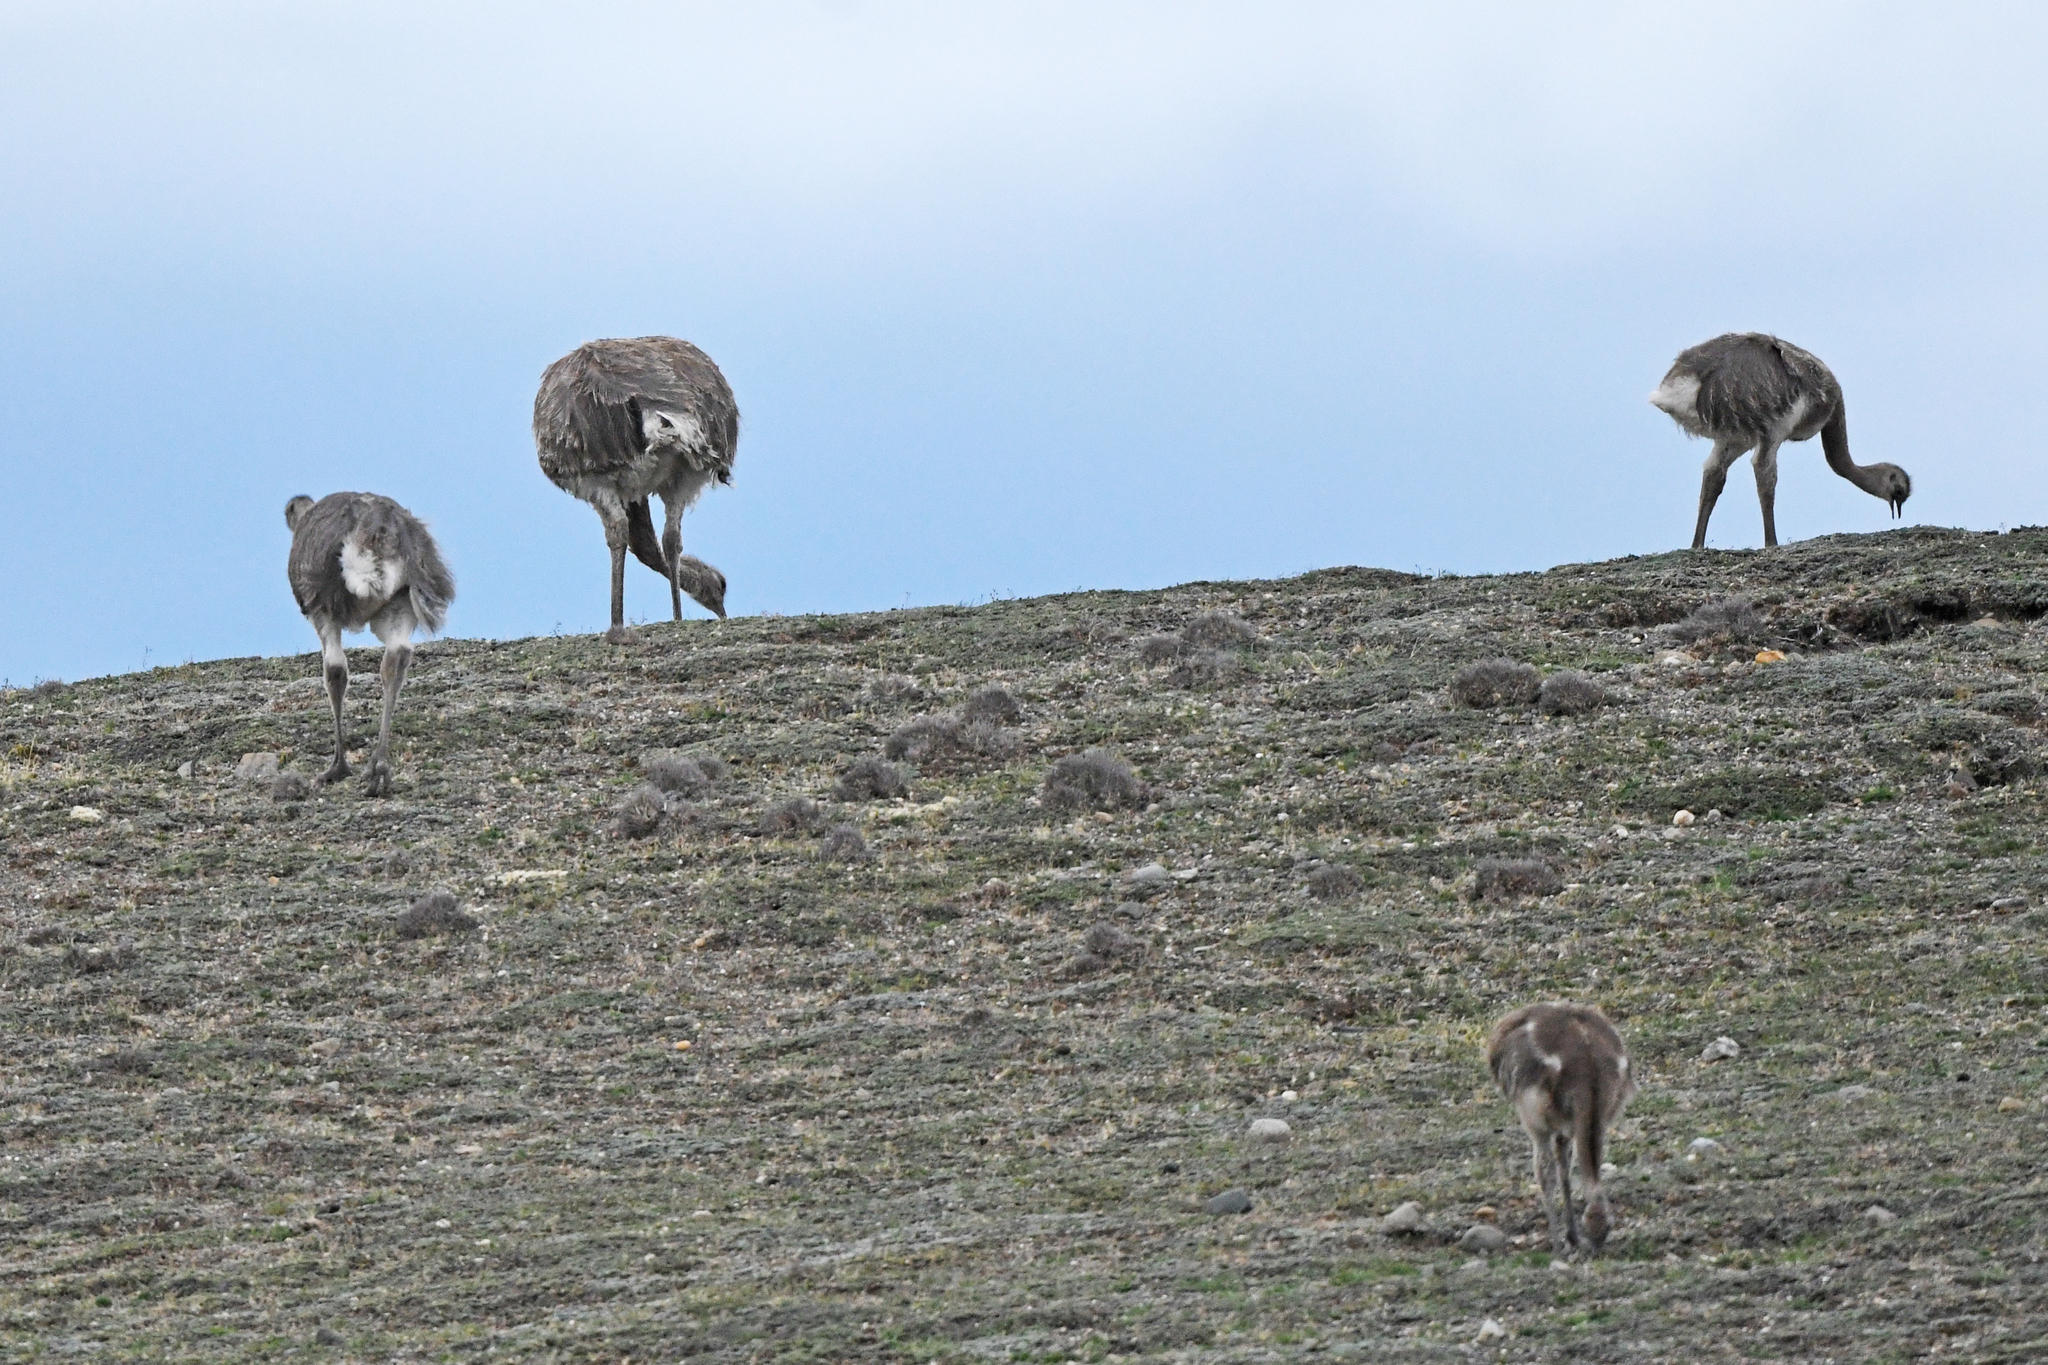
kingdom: Animalia
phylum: Chordata
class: Aves
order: Rheiformes
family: Rheidae
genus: Rhea
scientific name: Rhea pennata
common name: Lesser rhea
